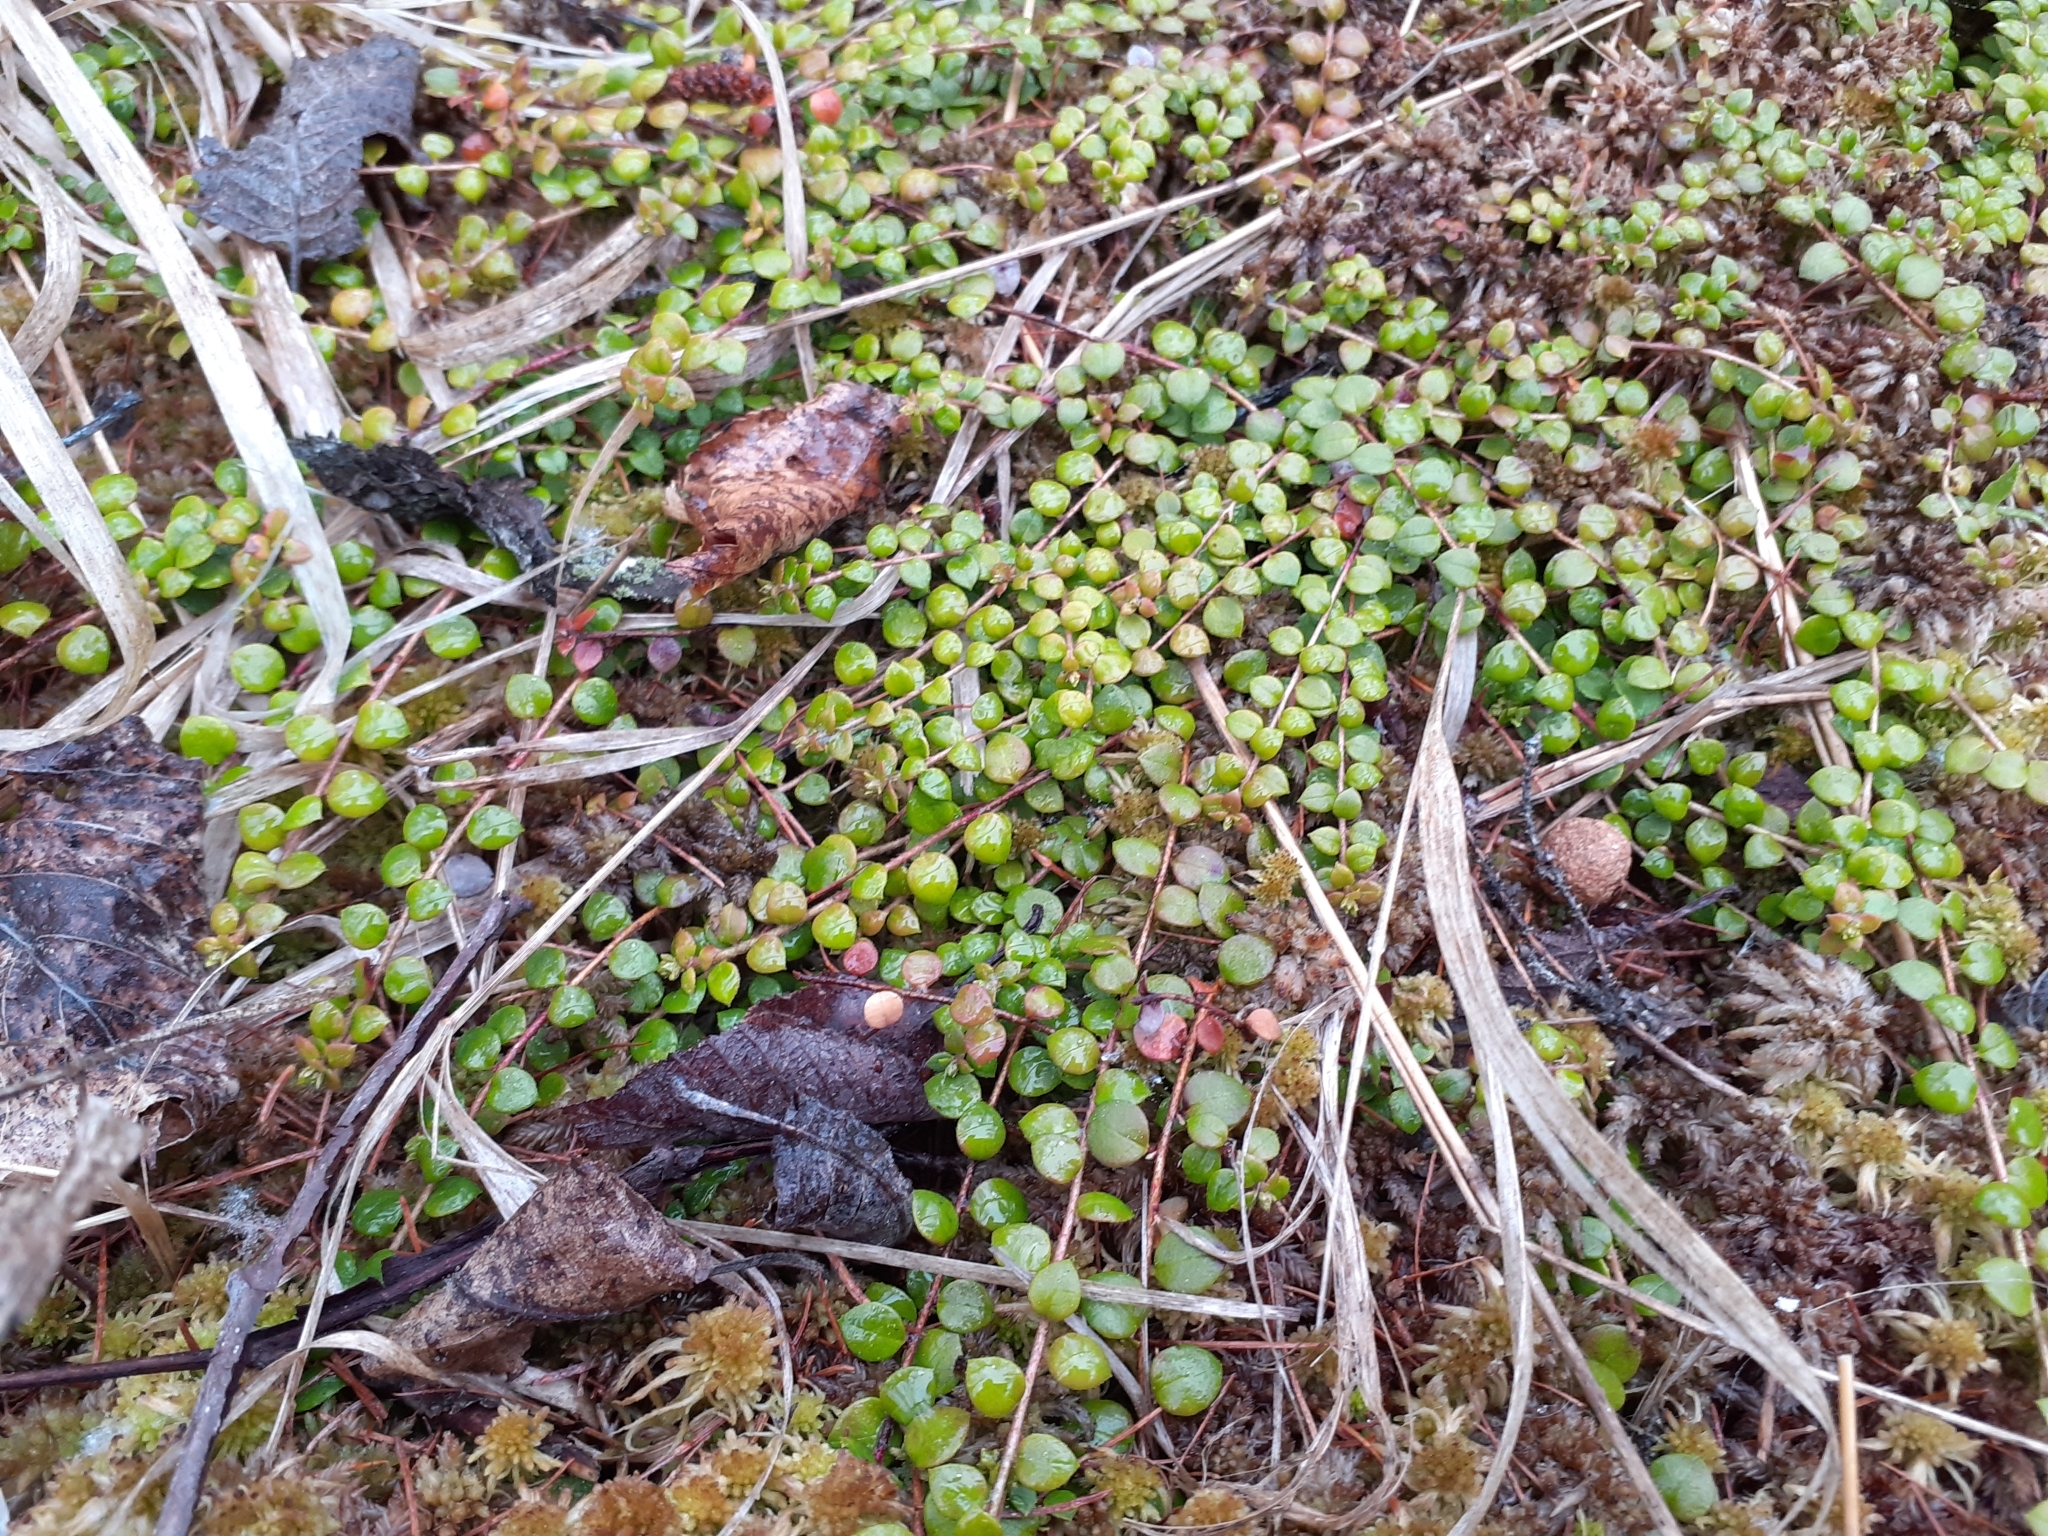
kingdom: Plantae
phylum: Tracheophyta
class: Magnoliopsida
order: Ericales
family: Ericaceae
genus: Gaultheria
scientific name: Gaultheria hispidula
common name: Cancer wintergreen
